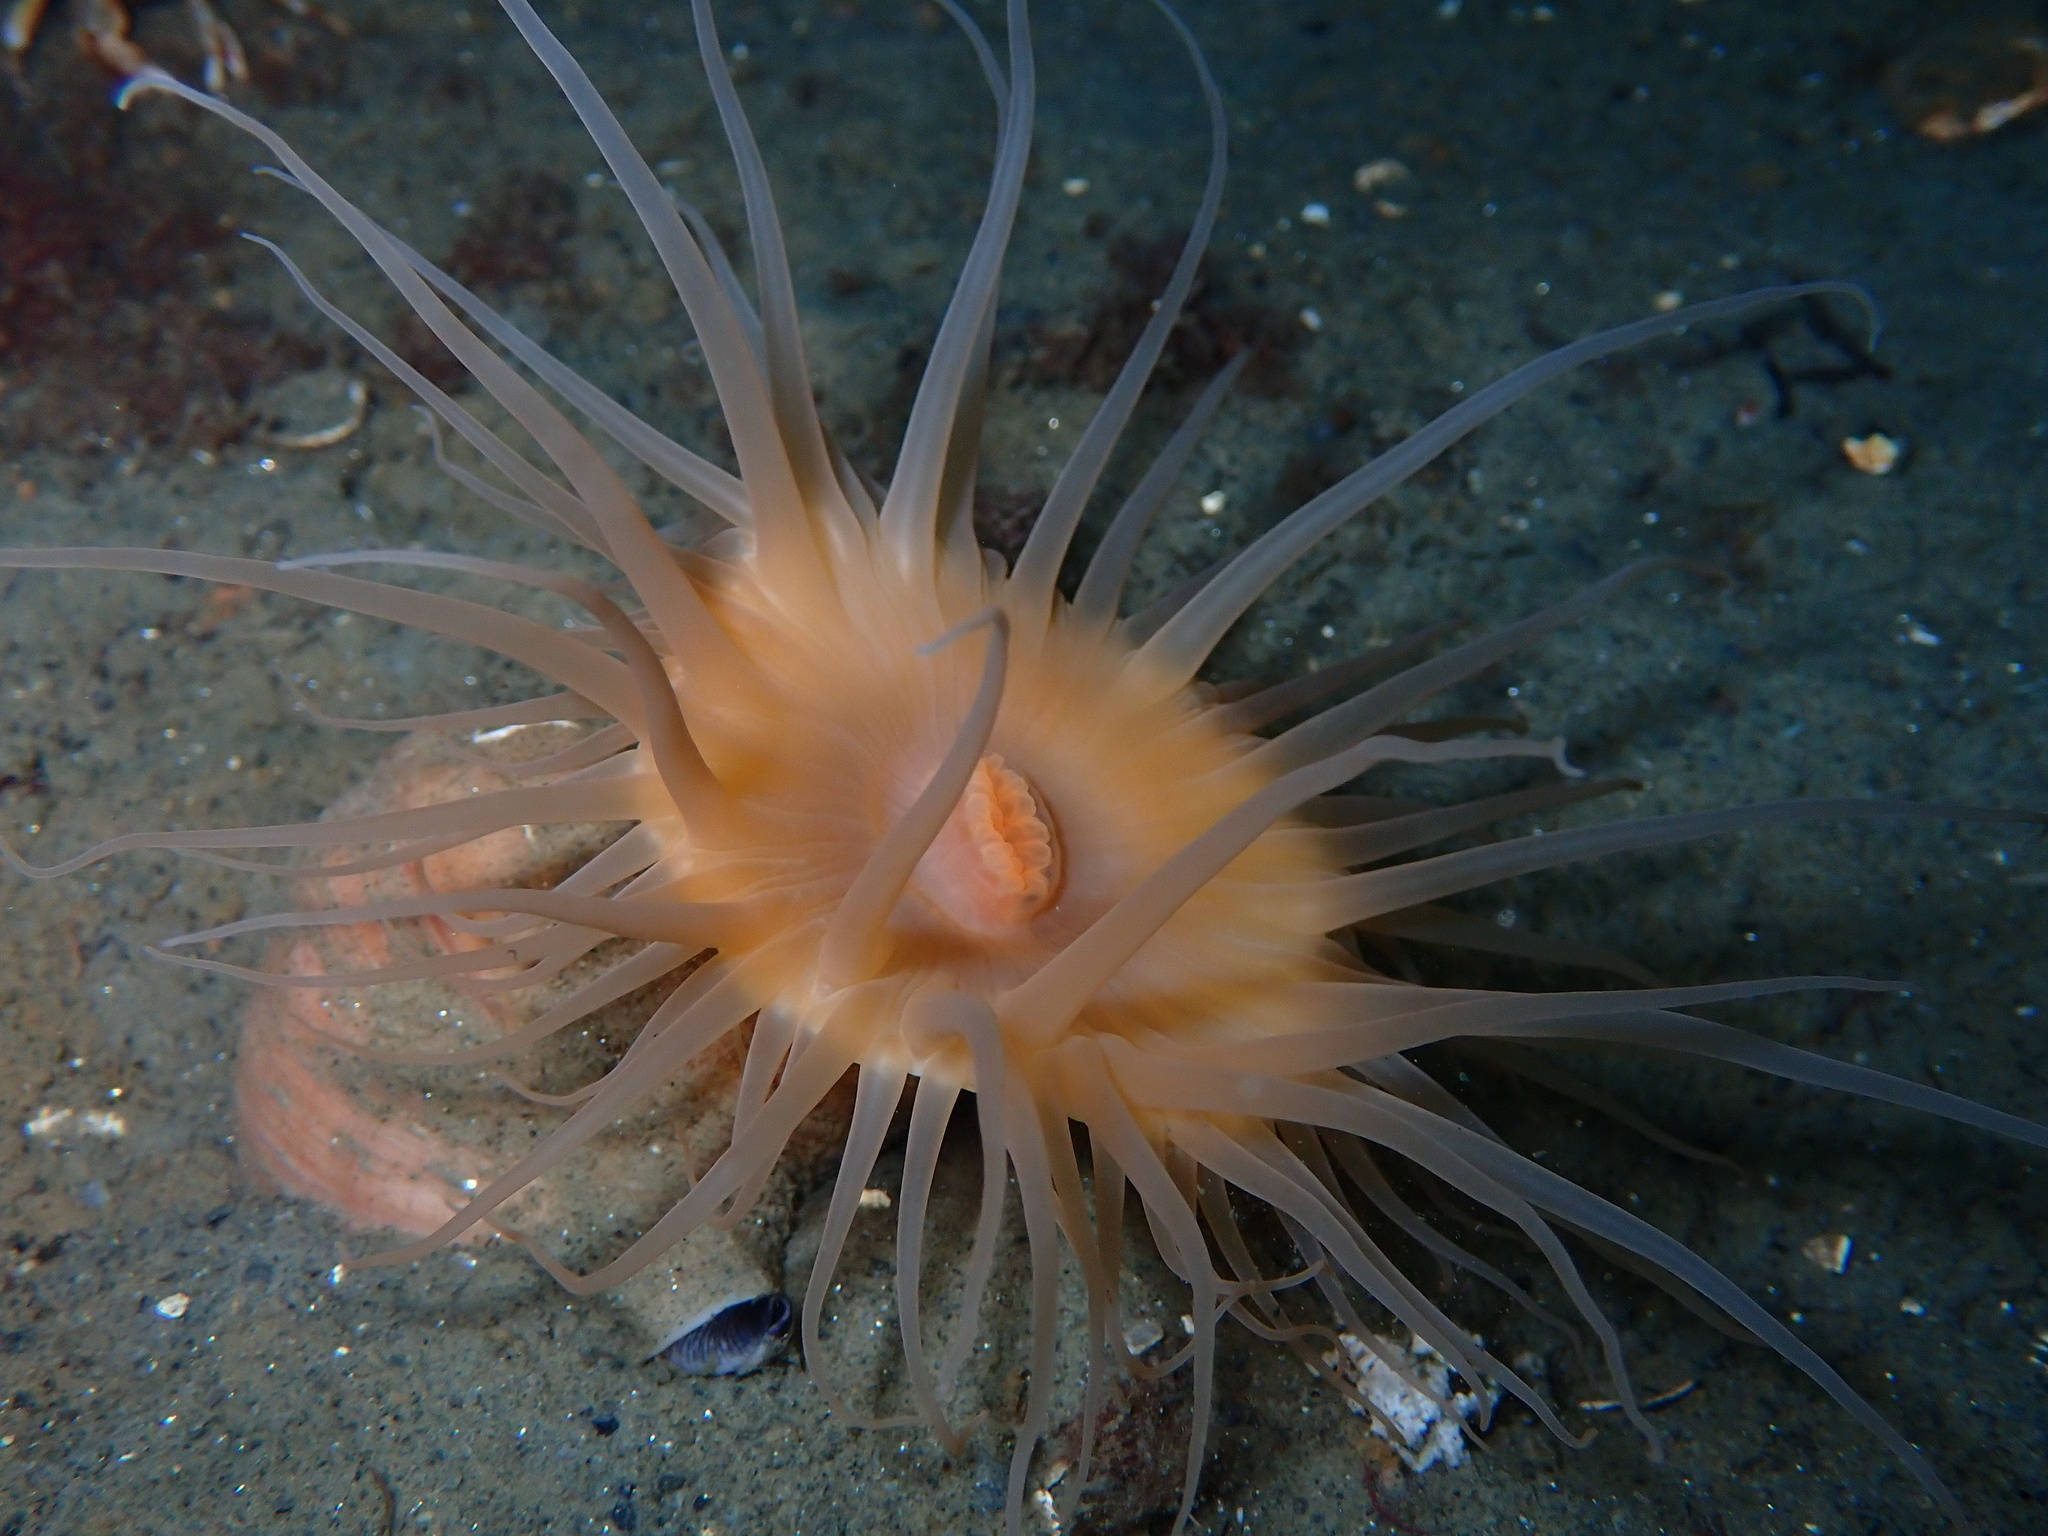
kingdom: Animalia
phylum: Cnidaria
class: Anthozoa
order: Actiniaria
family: Hormathiidae
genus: Hormathia
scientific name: Hormathia digitata
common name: Maned sea anemone
